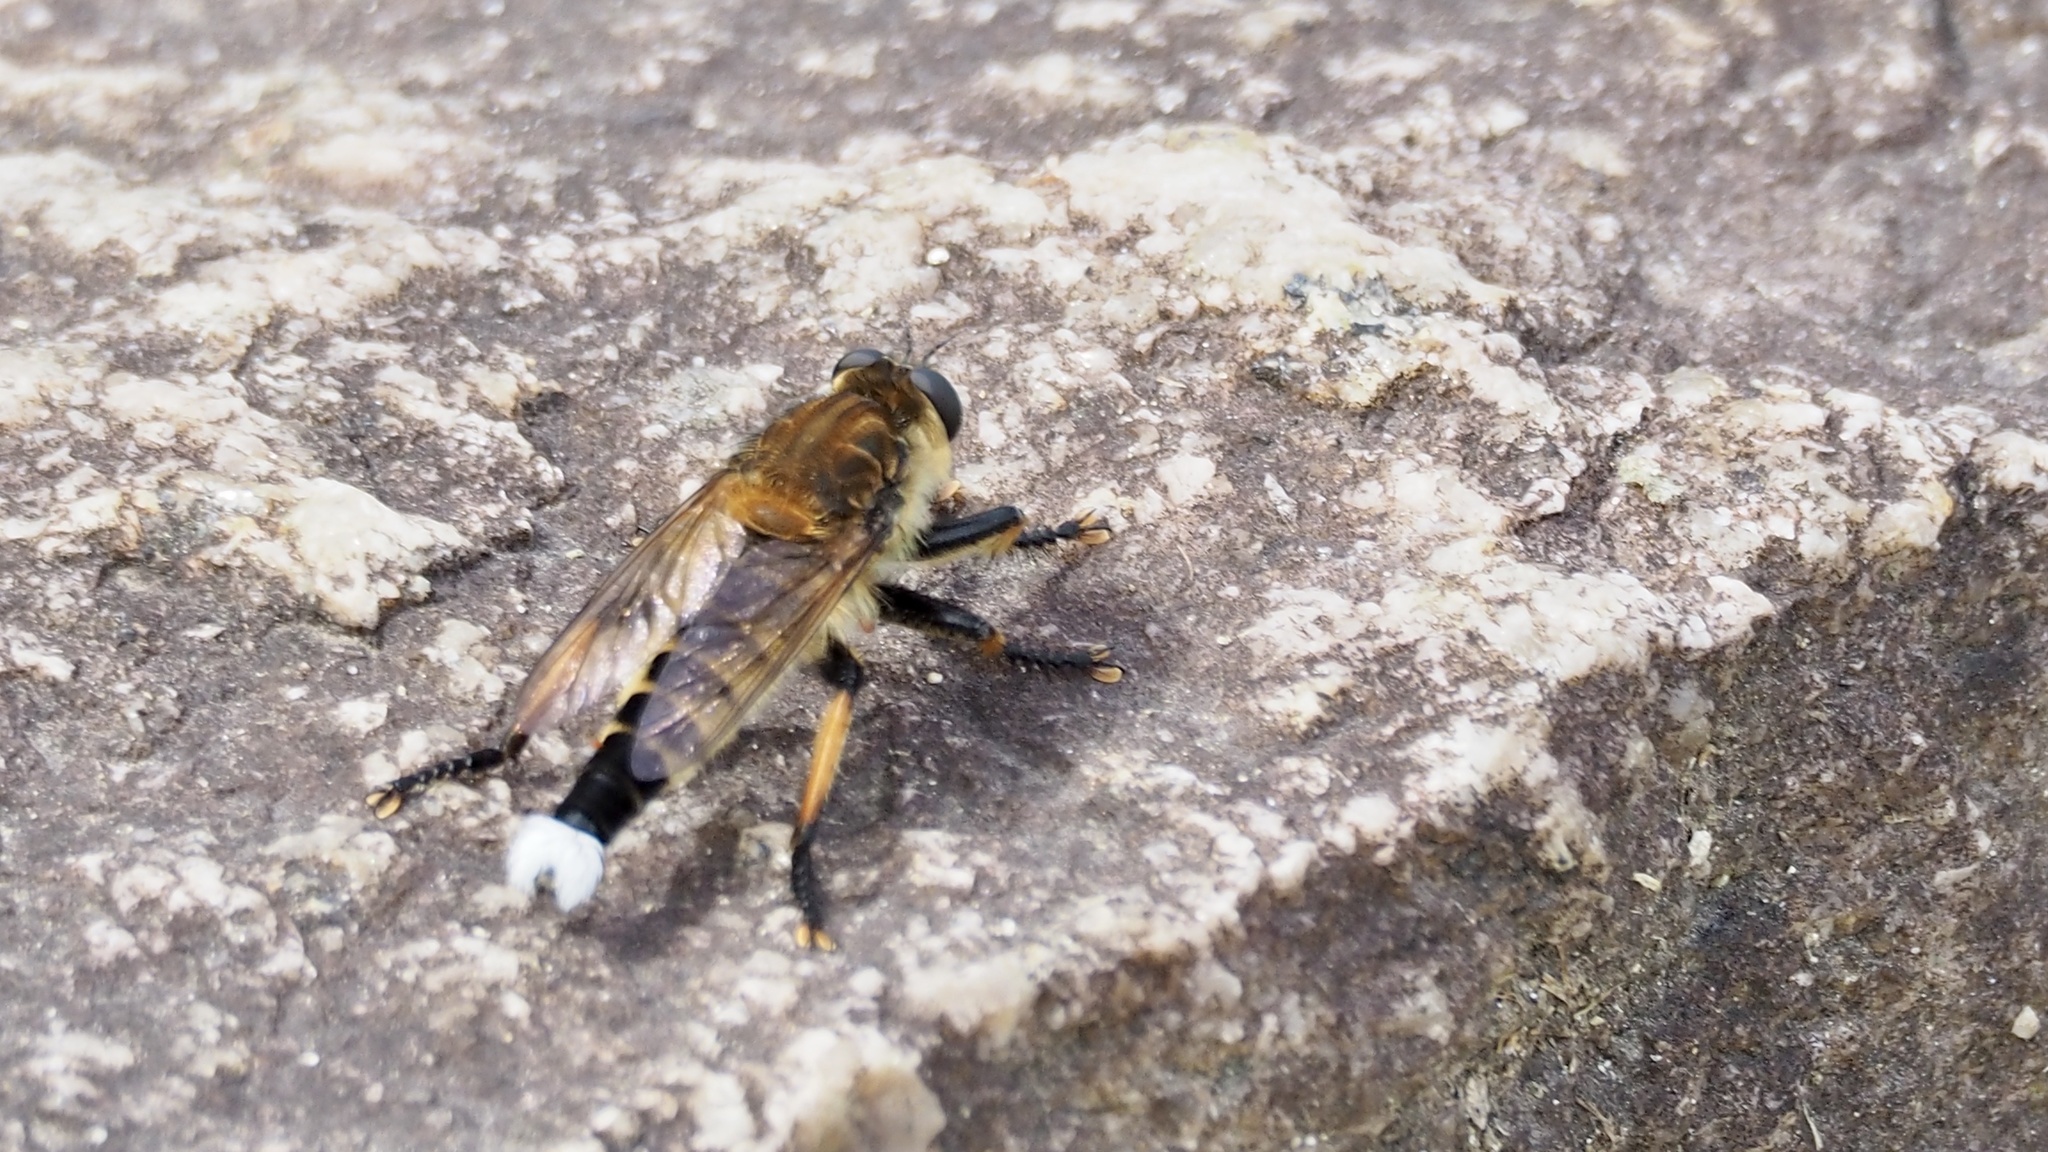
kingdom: Animalia
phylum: Arthropoda
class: Insecta
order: Diptera
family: Asilidae
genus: Promachus
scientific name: Promachus yesonicus
